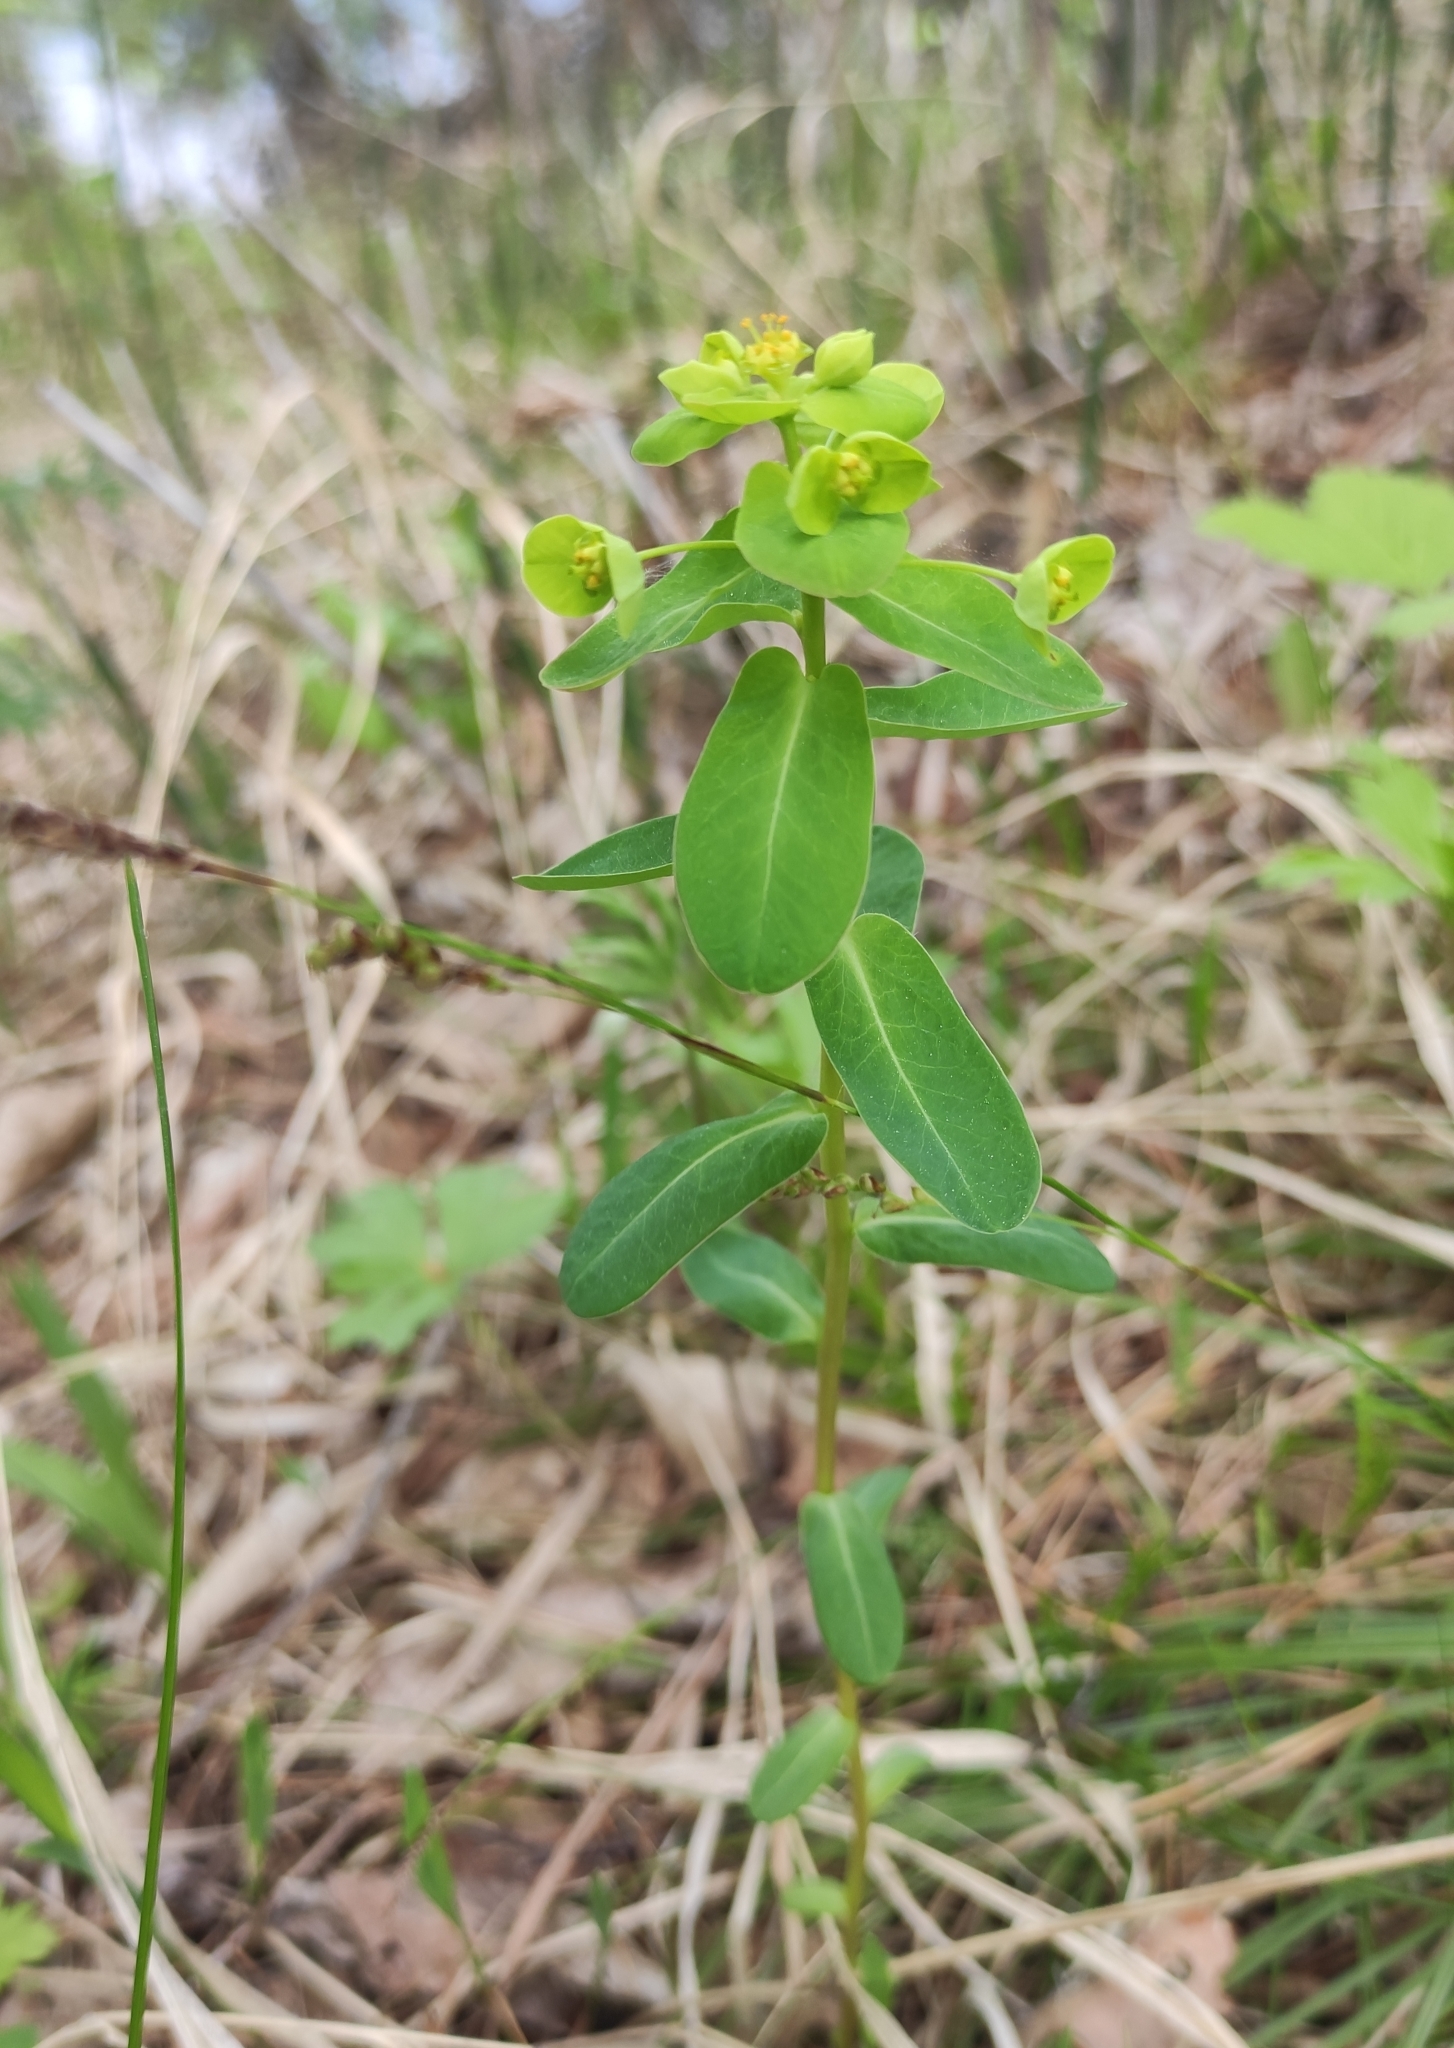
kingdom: Plantae
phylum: Tracheophyta
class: Magnoliopsida
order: Malpighiales
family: Euphorbiaceae
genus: Euphorbia
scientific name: Euphorbia jenisseiensis
